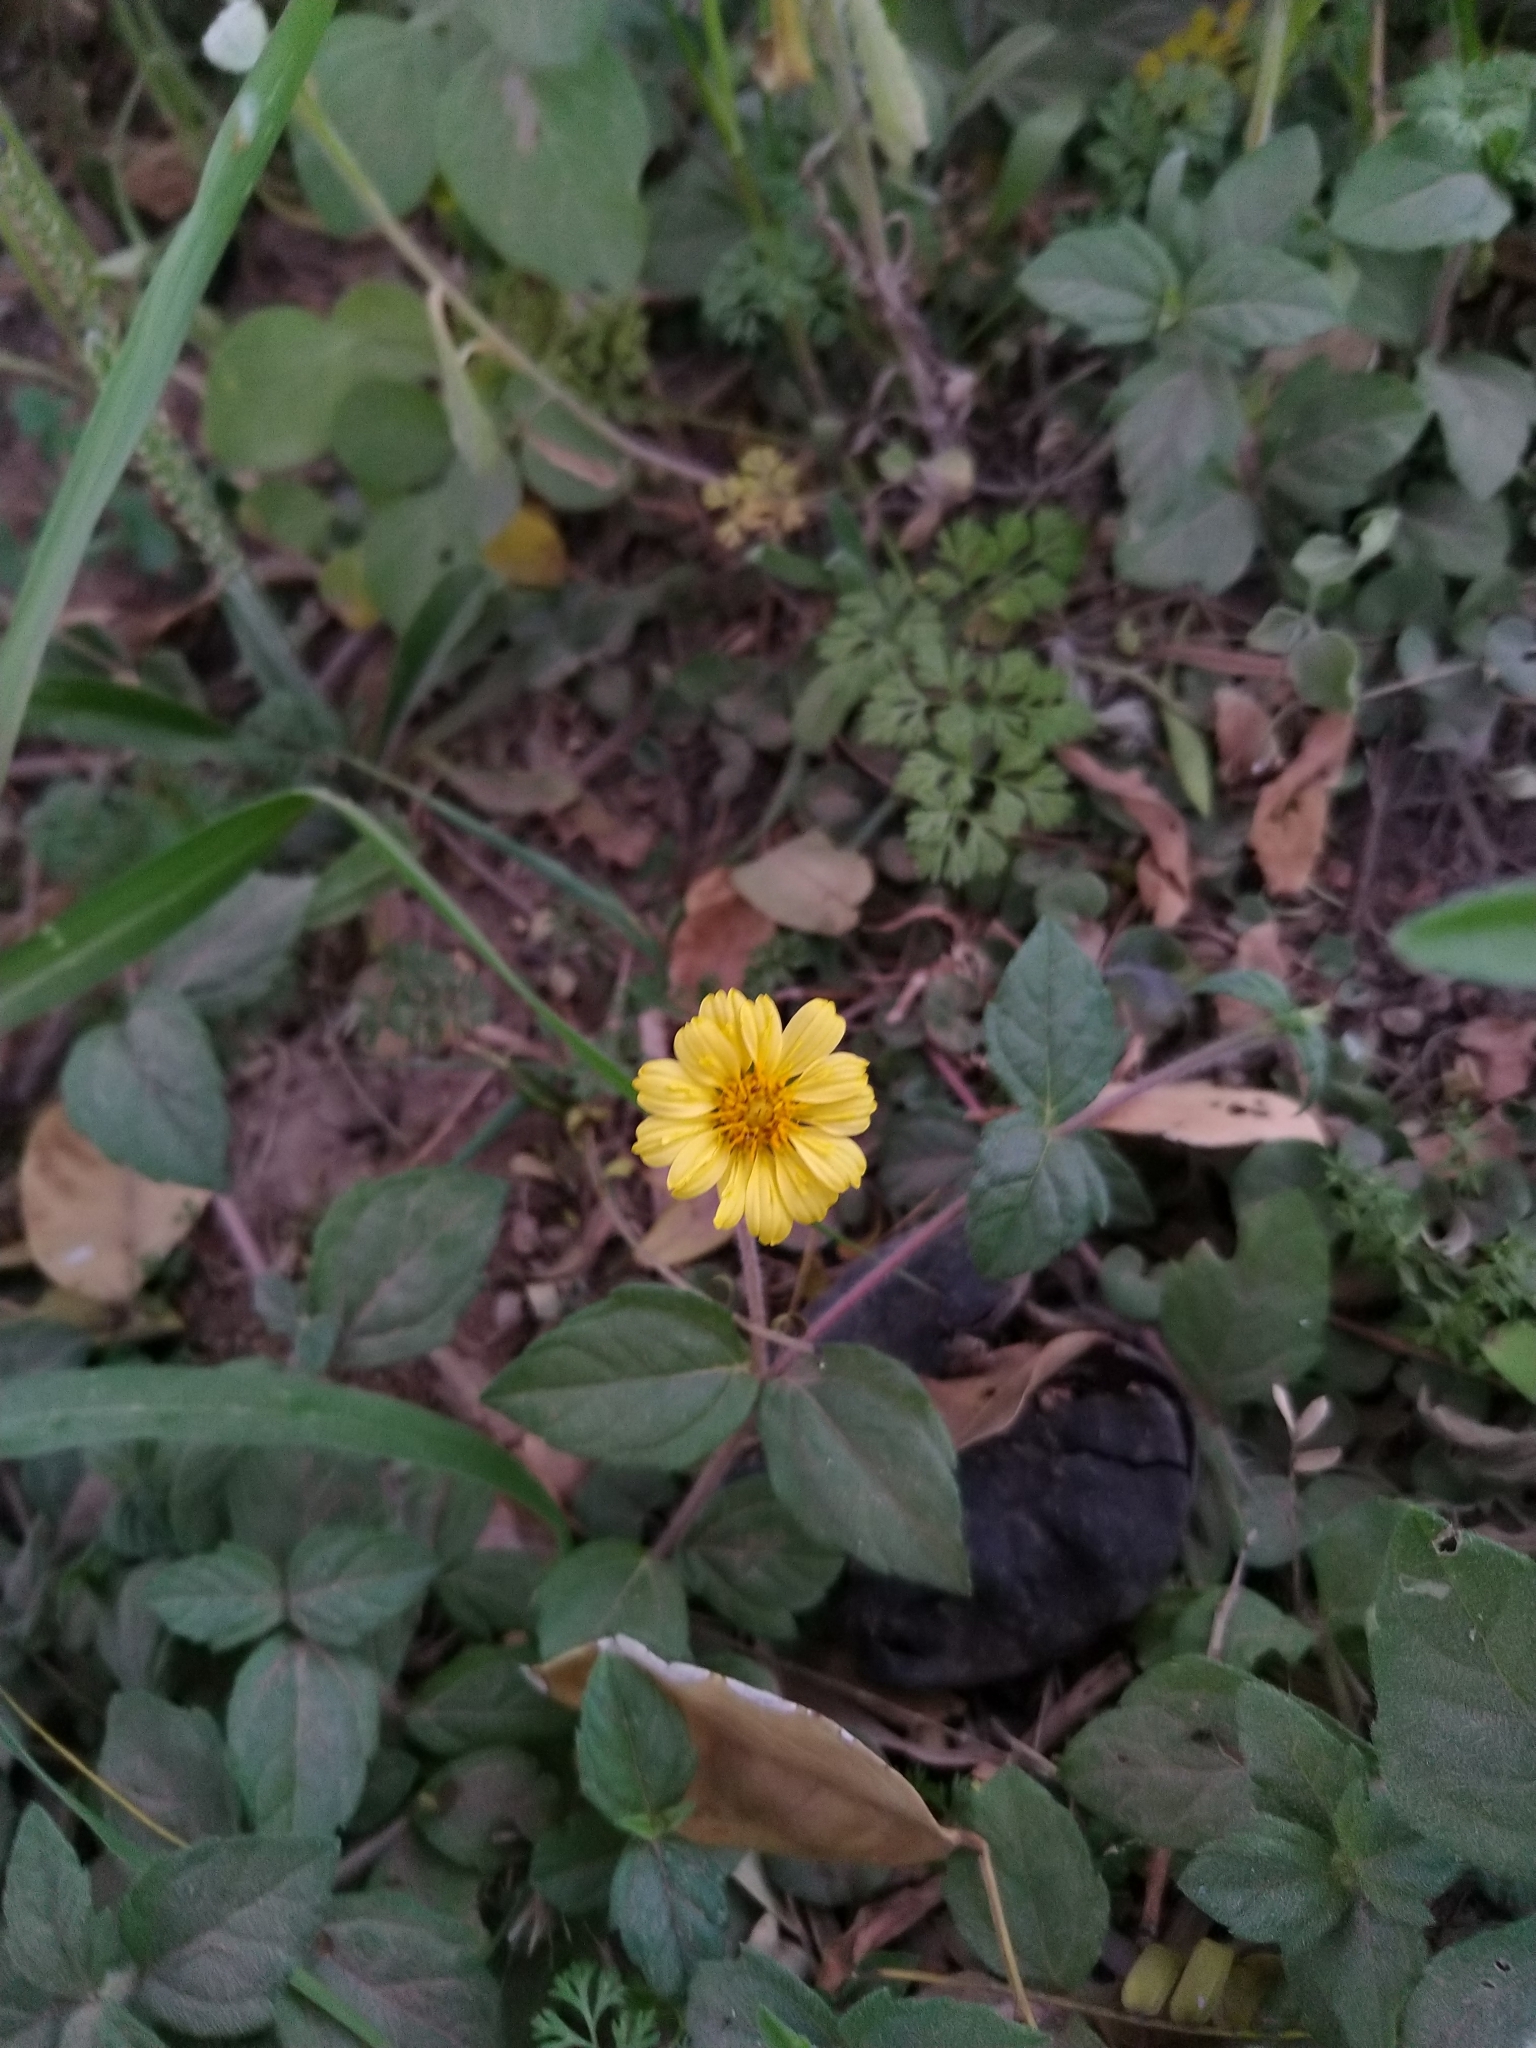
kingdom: Plantae
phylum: Tracheophyta
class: Magnoliopsida
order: Asterales
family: Asteraceae
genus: Sphagneticola
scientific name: Sphagneticola brachycarpa
